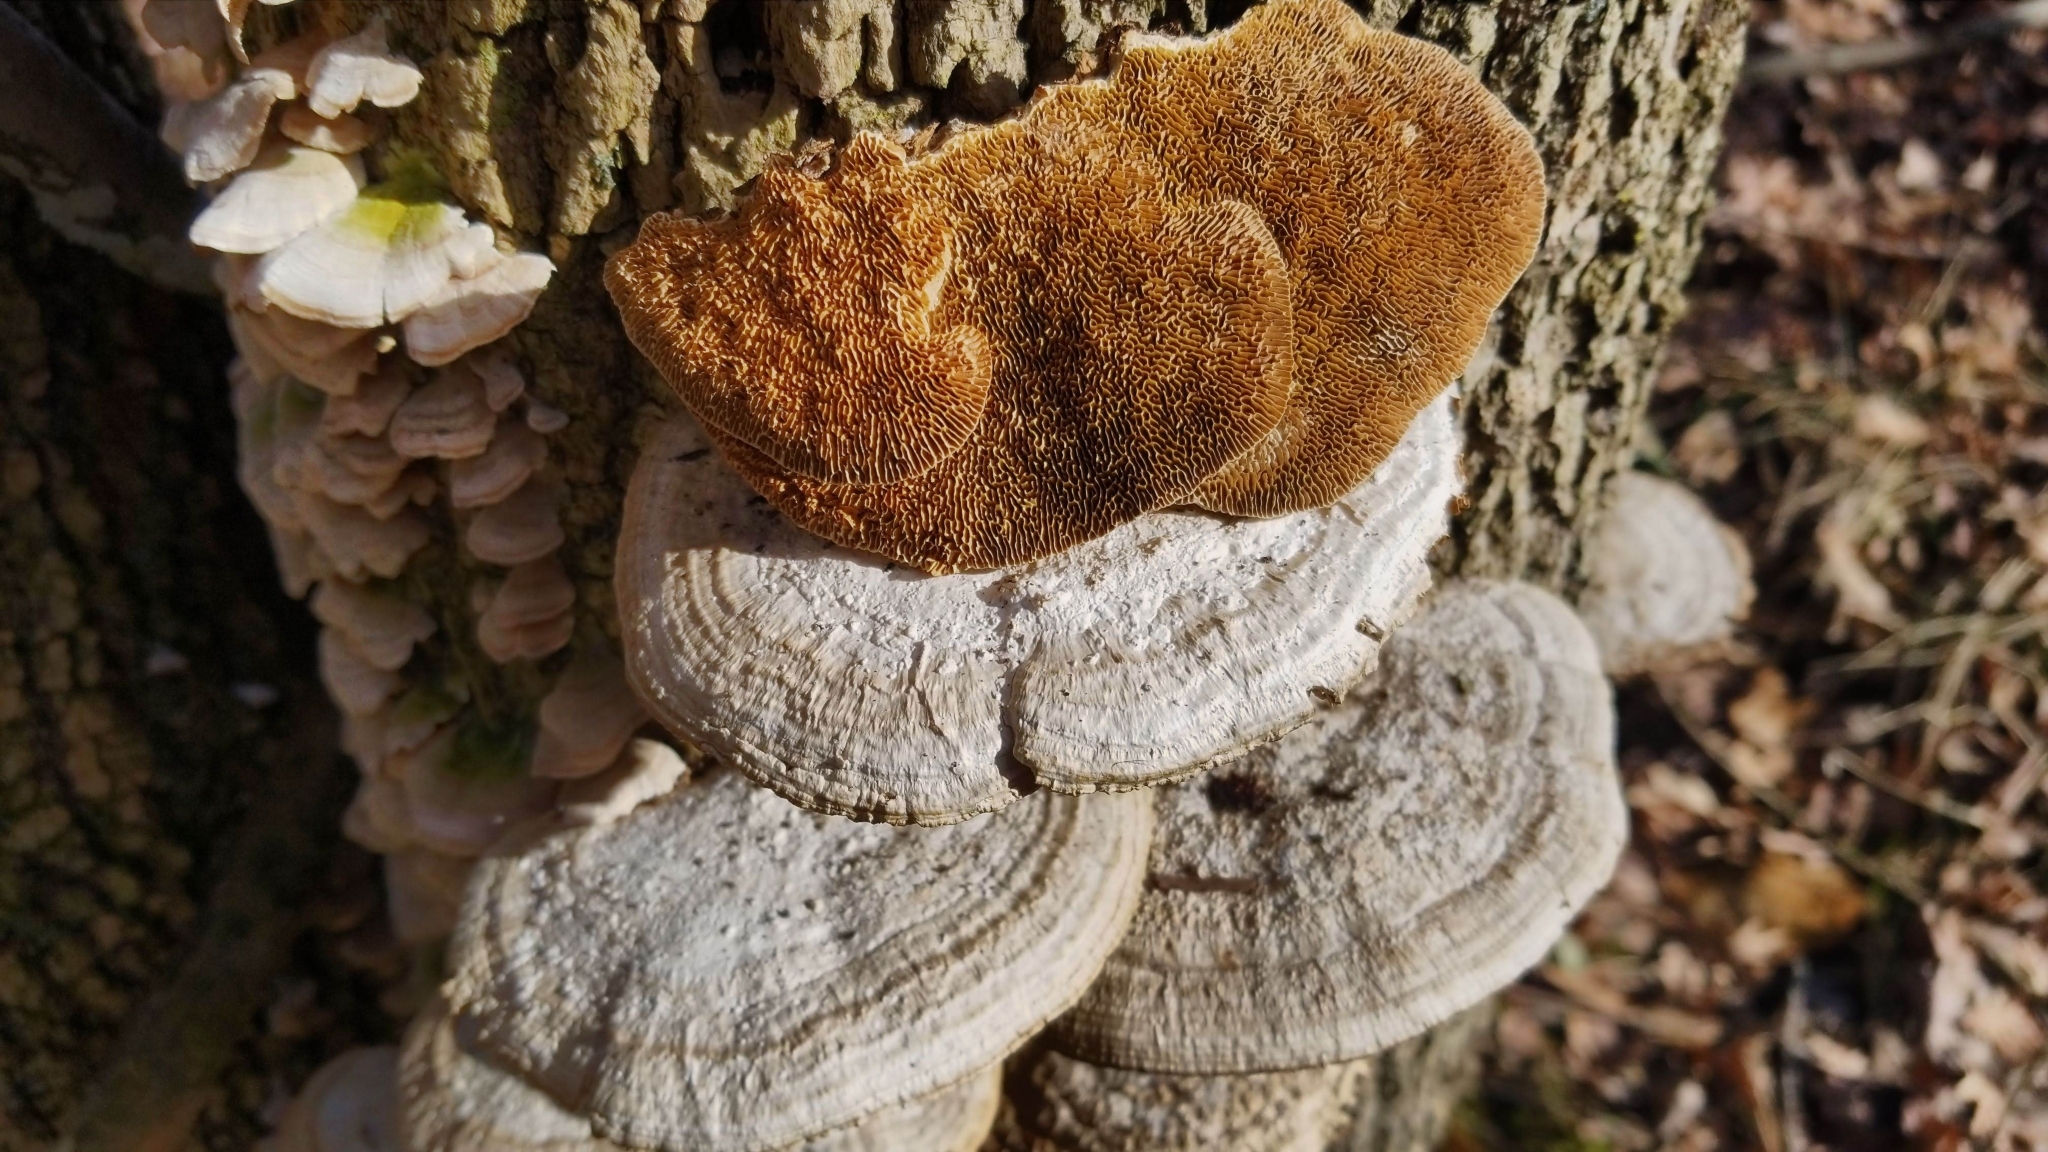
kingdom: Fungi
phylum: Basidiomycota
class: Agaricomycetes
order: Polyporales
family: Polyporaceae
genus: Daedaleopsis
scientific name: Daedaleopsis confragosa
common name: Blushing bracket
